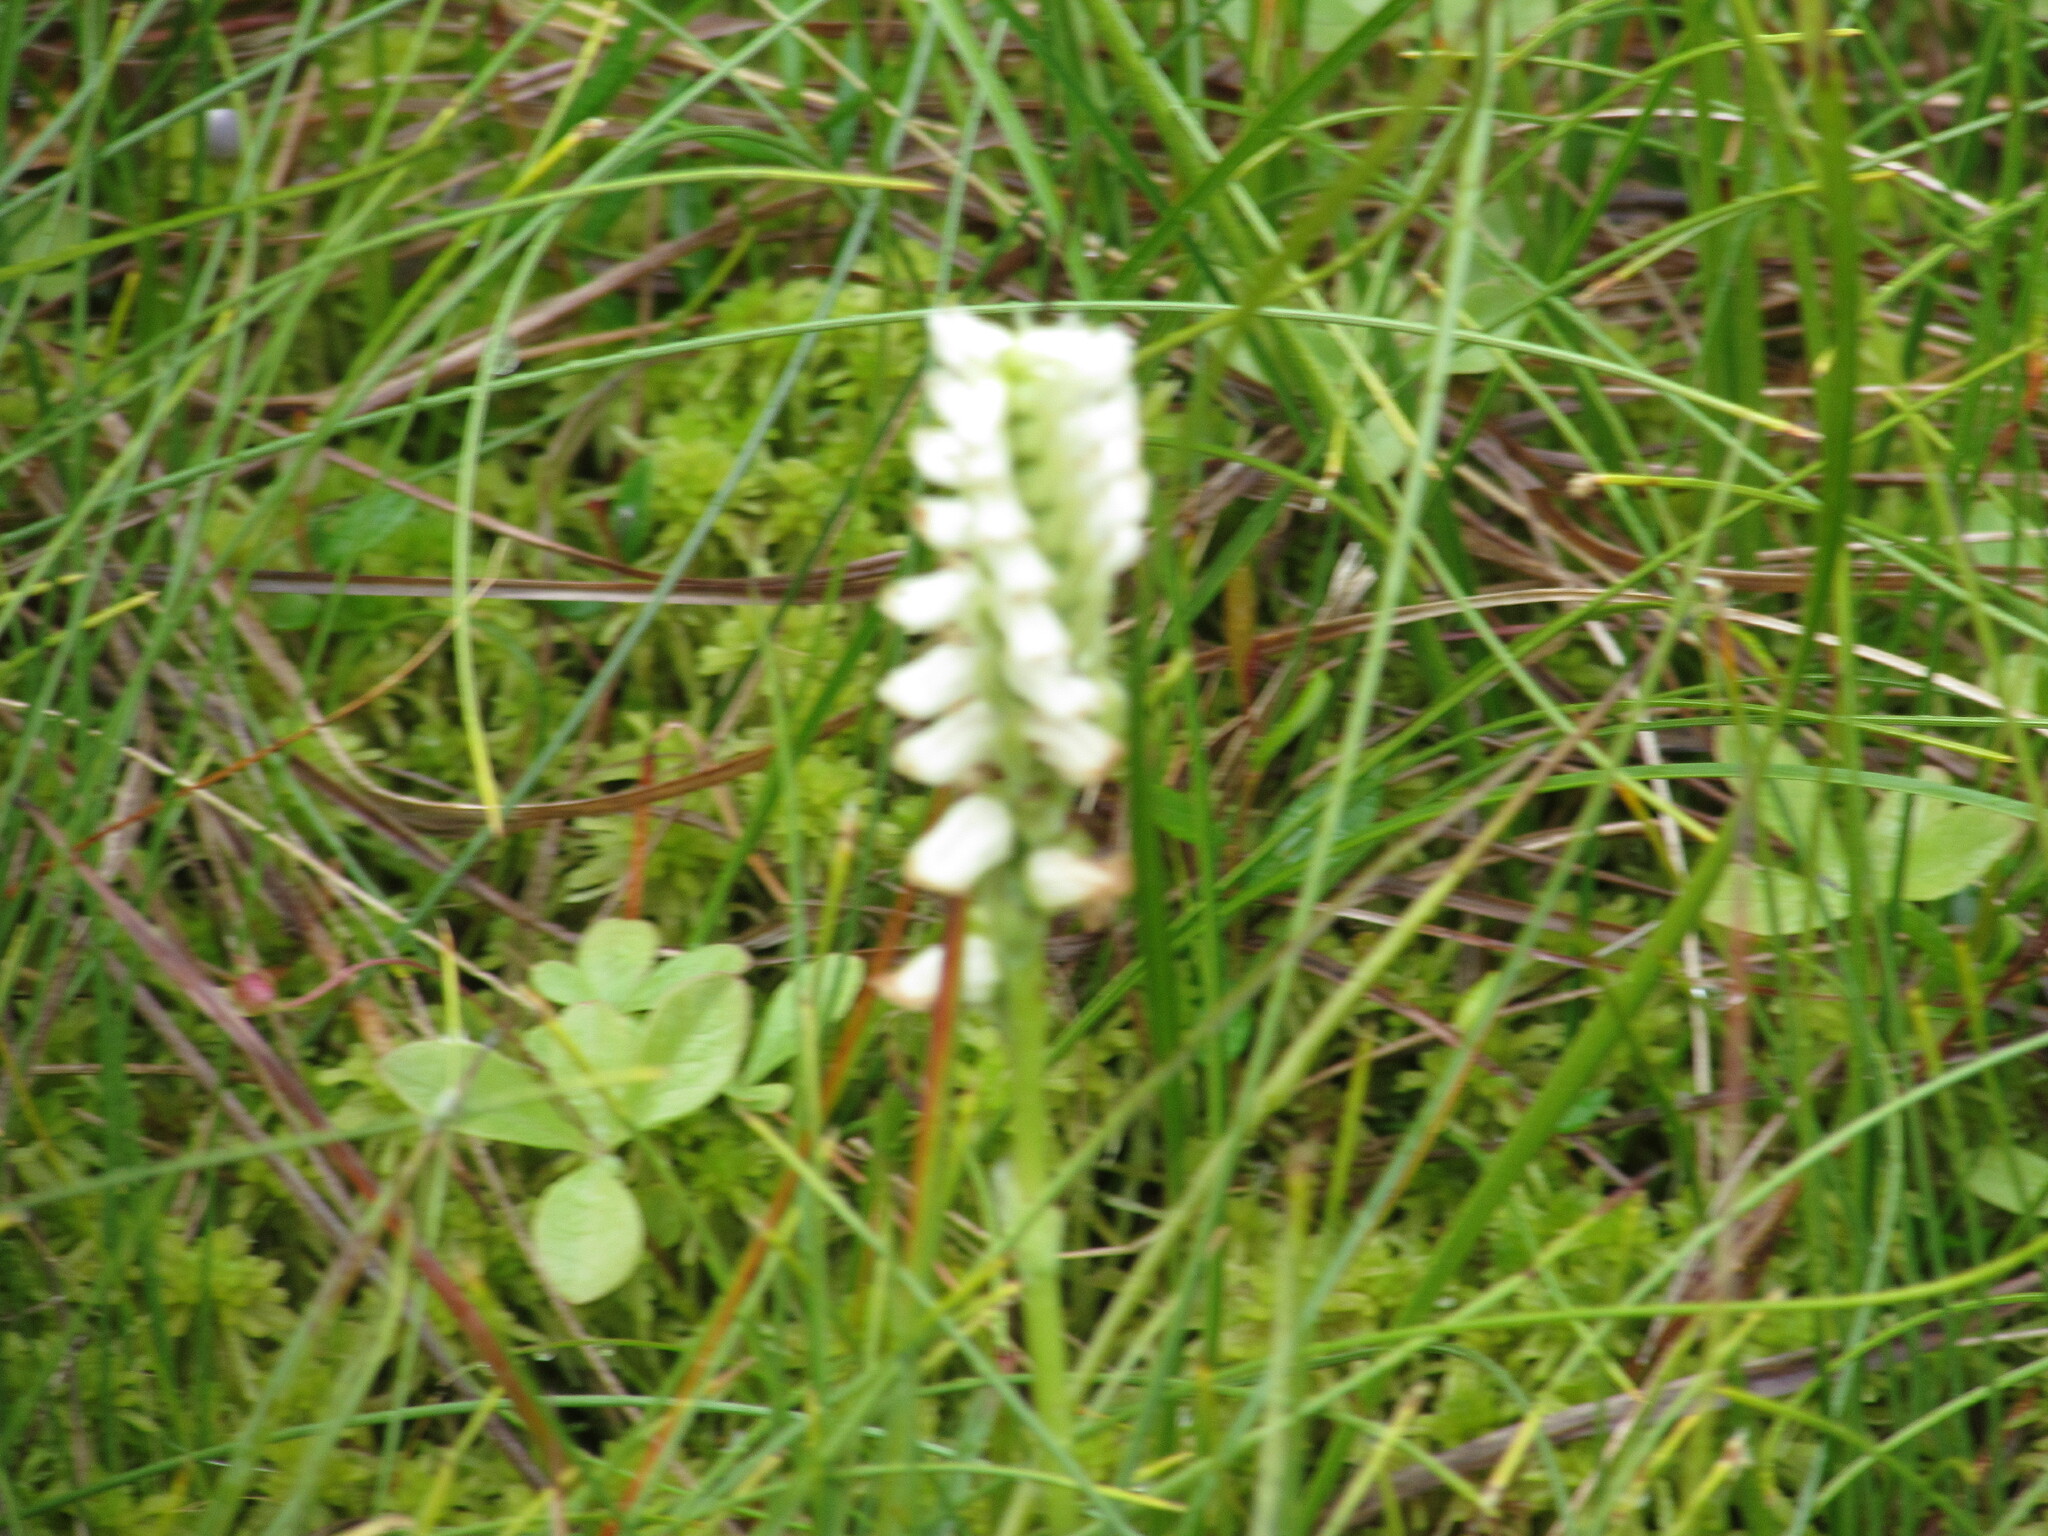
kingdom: Plantae
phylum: Tracheophyta
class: Liliopsida
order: Asparagales
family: Orchidaceae
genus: Spiranthes
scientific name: Spiranthes romanzoffiana
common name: Irish lady's-tresses
